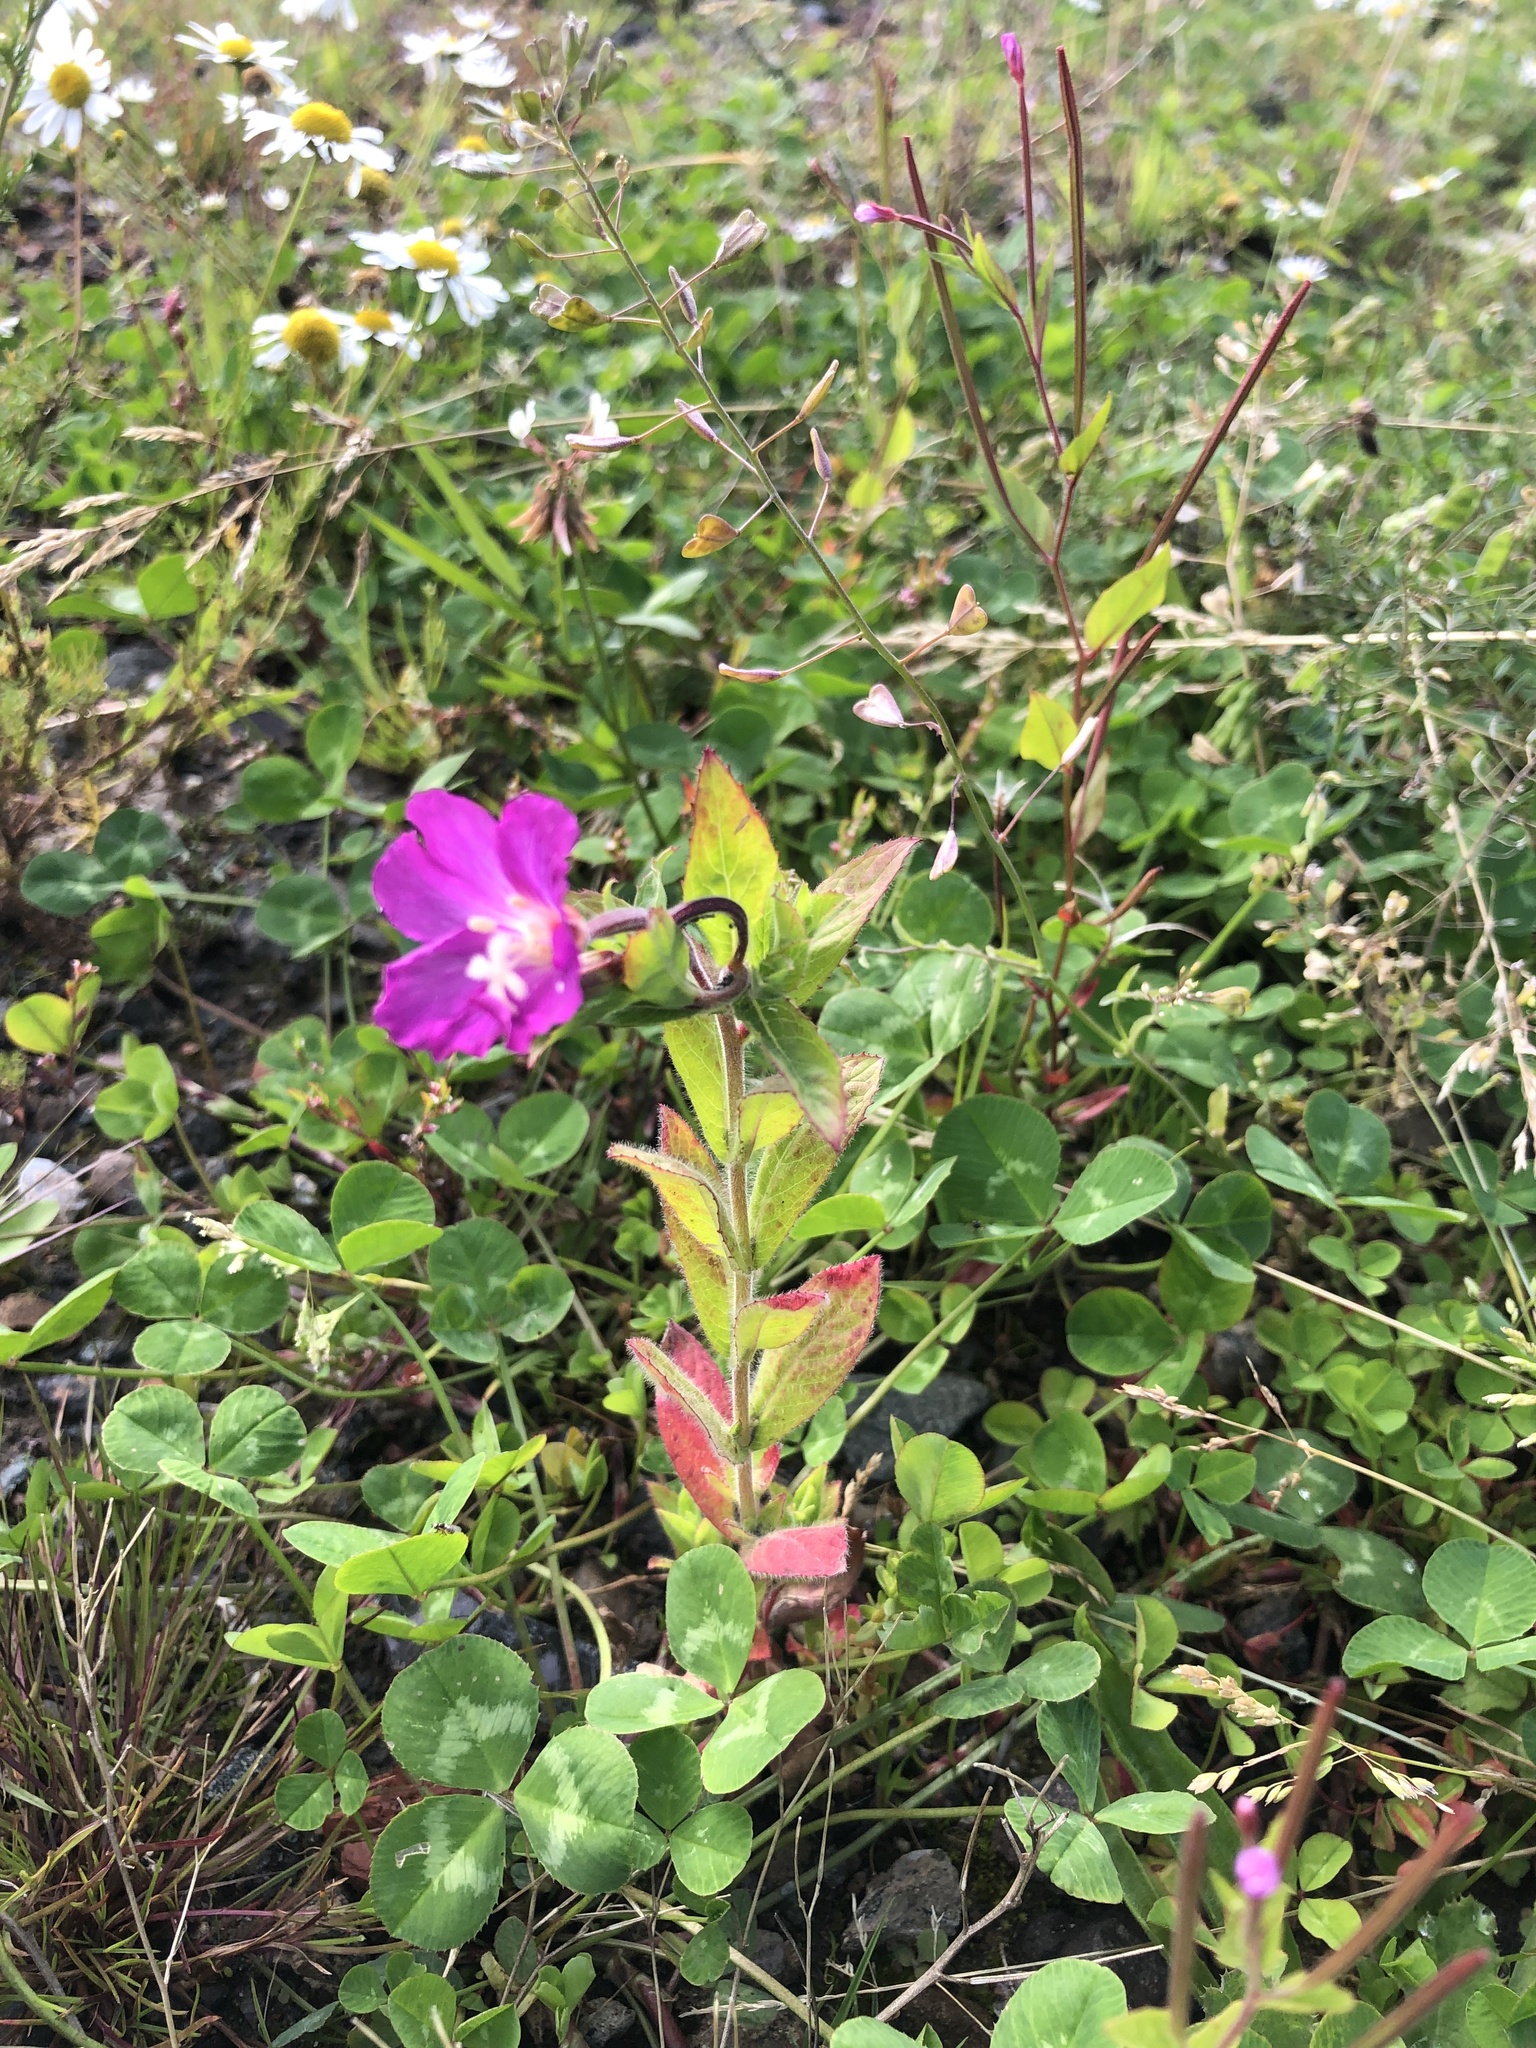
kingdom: Plantae
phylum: Tracheophyta
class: Magnoliopsida
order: Myrtales
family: Onagraceae
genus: Epilobium
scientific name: Epilobium hirsutum
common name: Great willowherb
